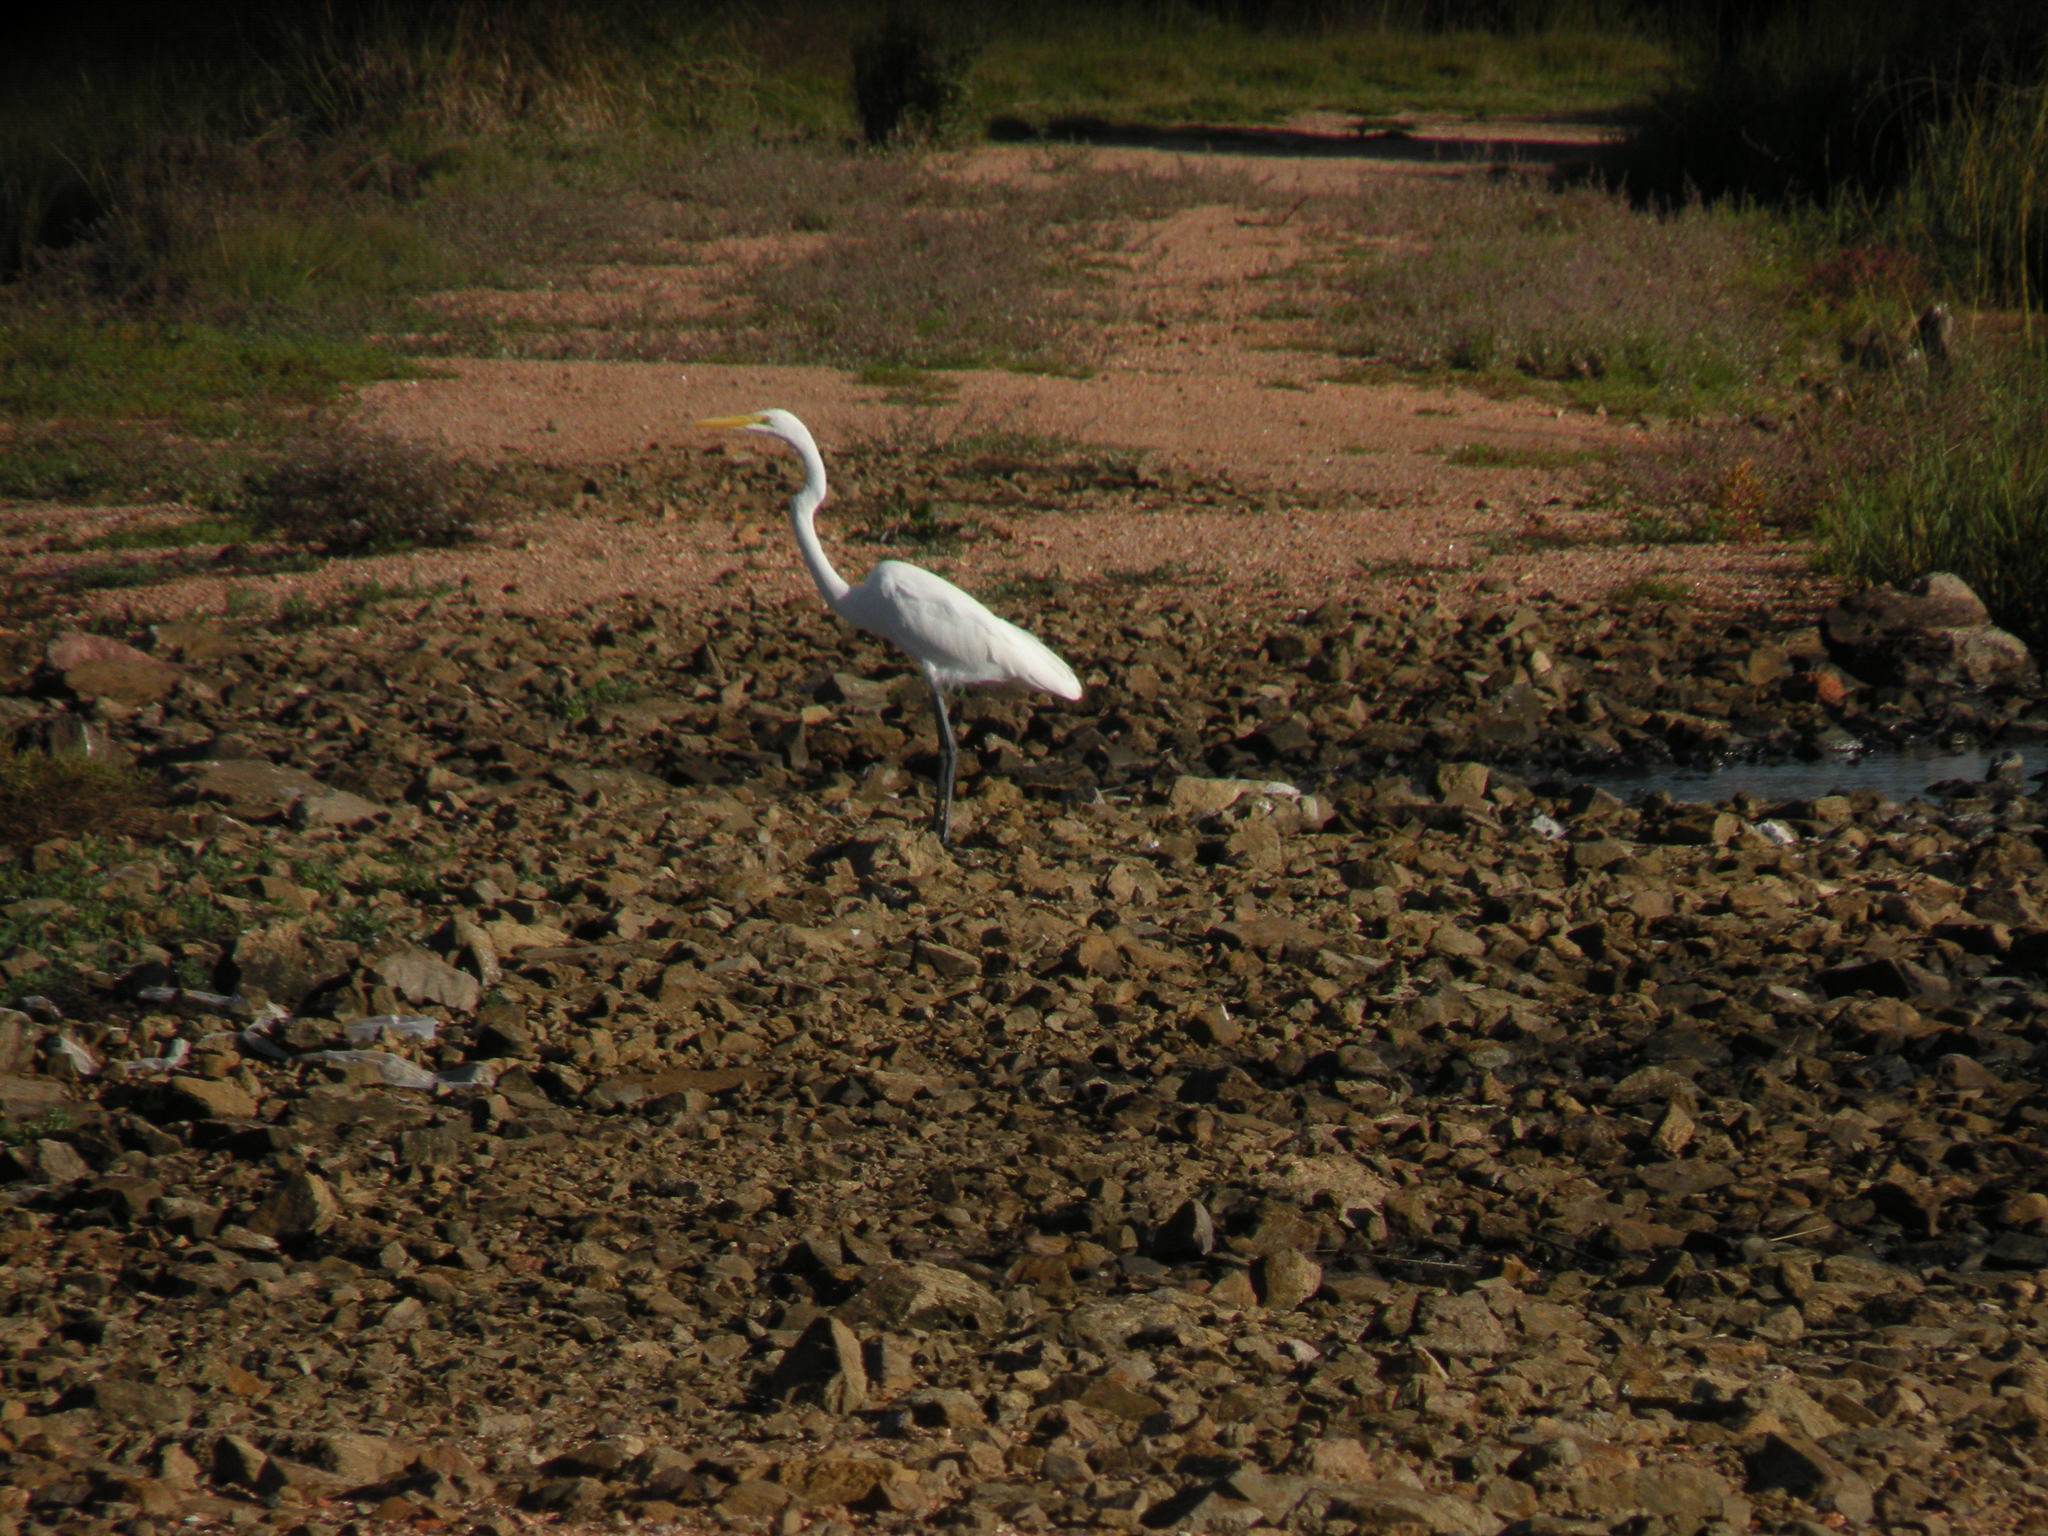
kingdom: Animalia
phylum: Chordata
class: Aves
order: Pelecaniformes
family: Ardeidae
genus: Ardea
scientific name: Ardea alba
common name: Great egret
